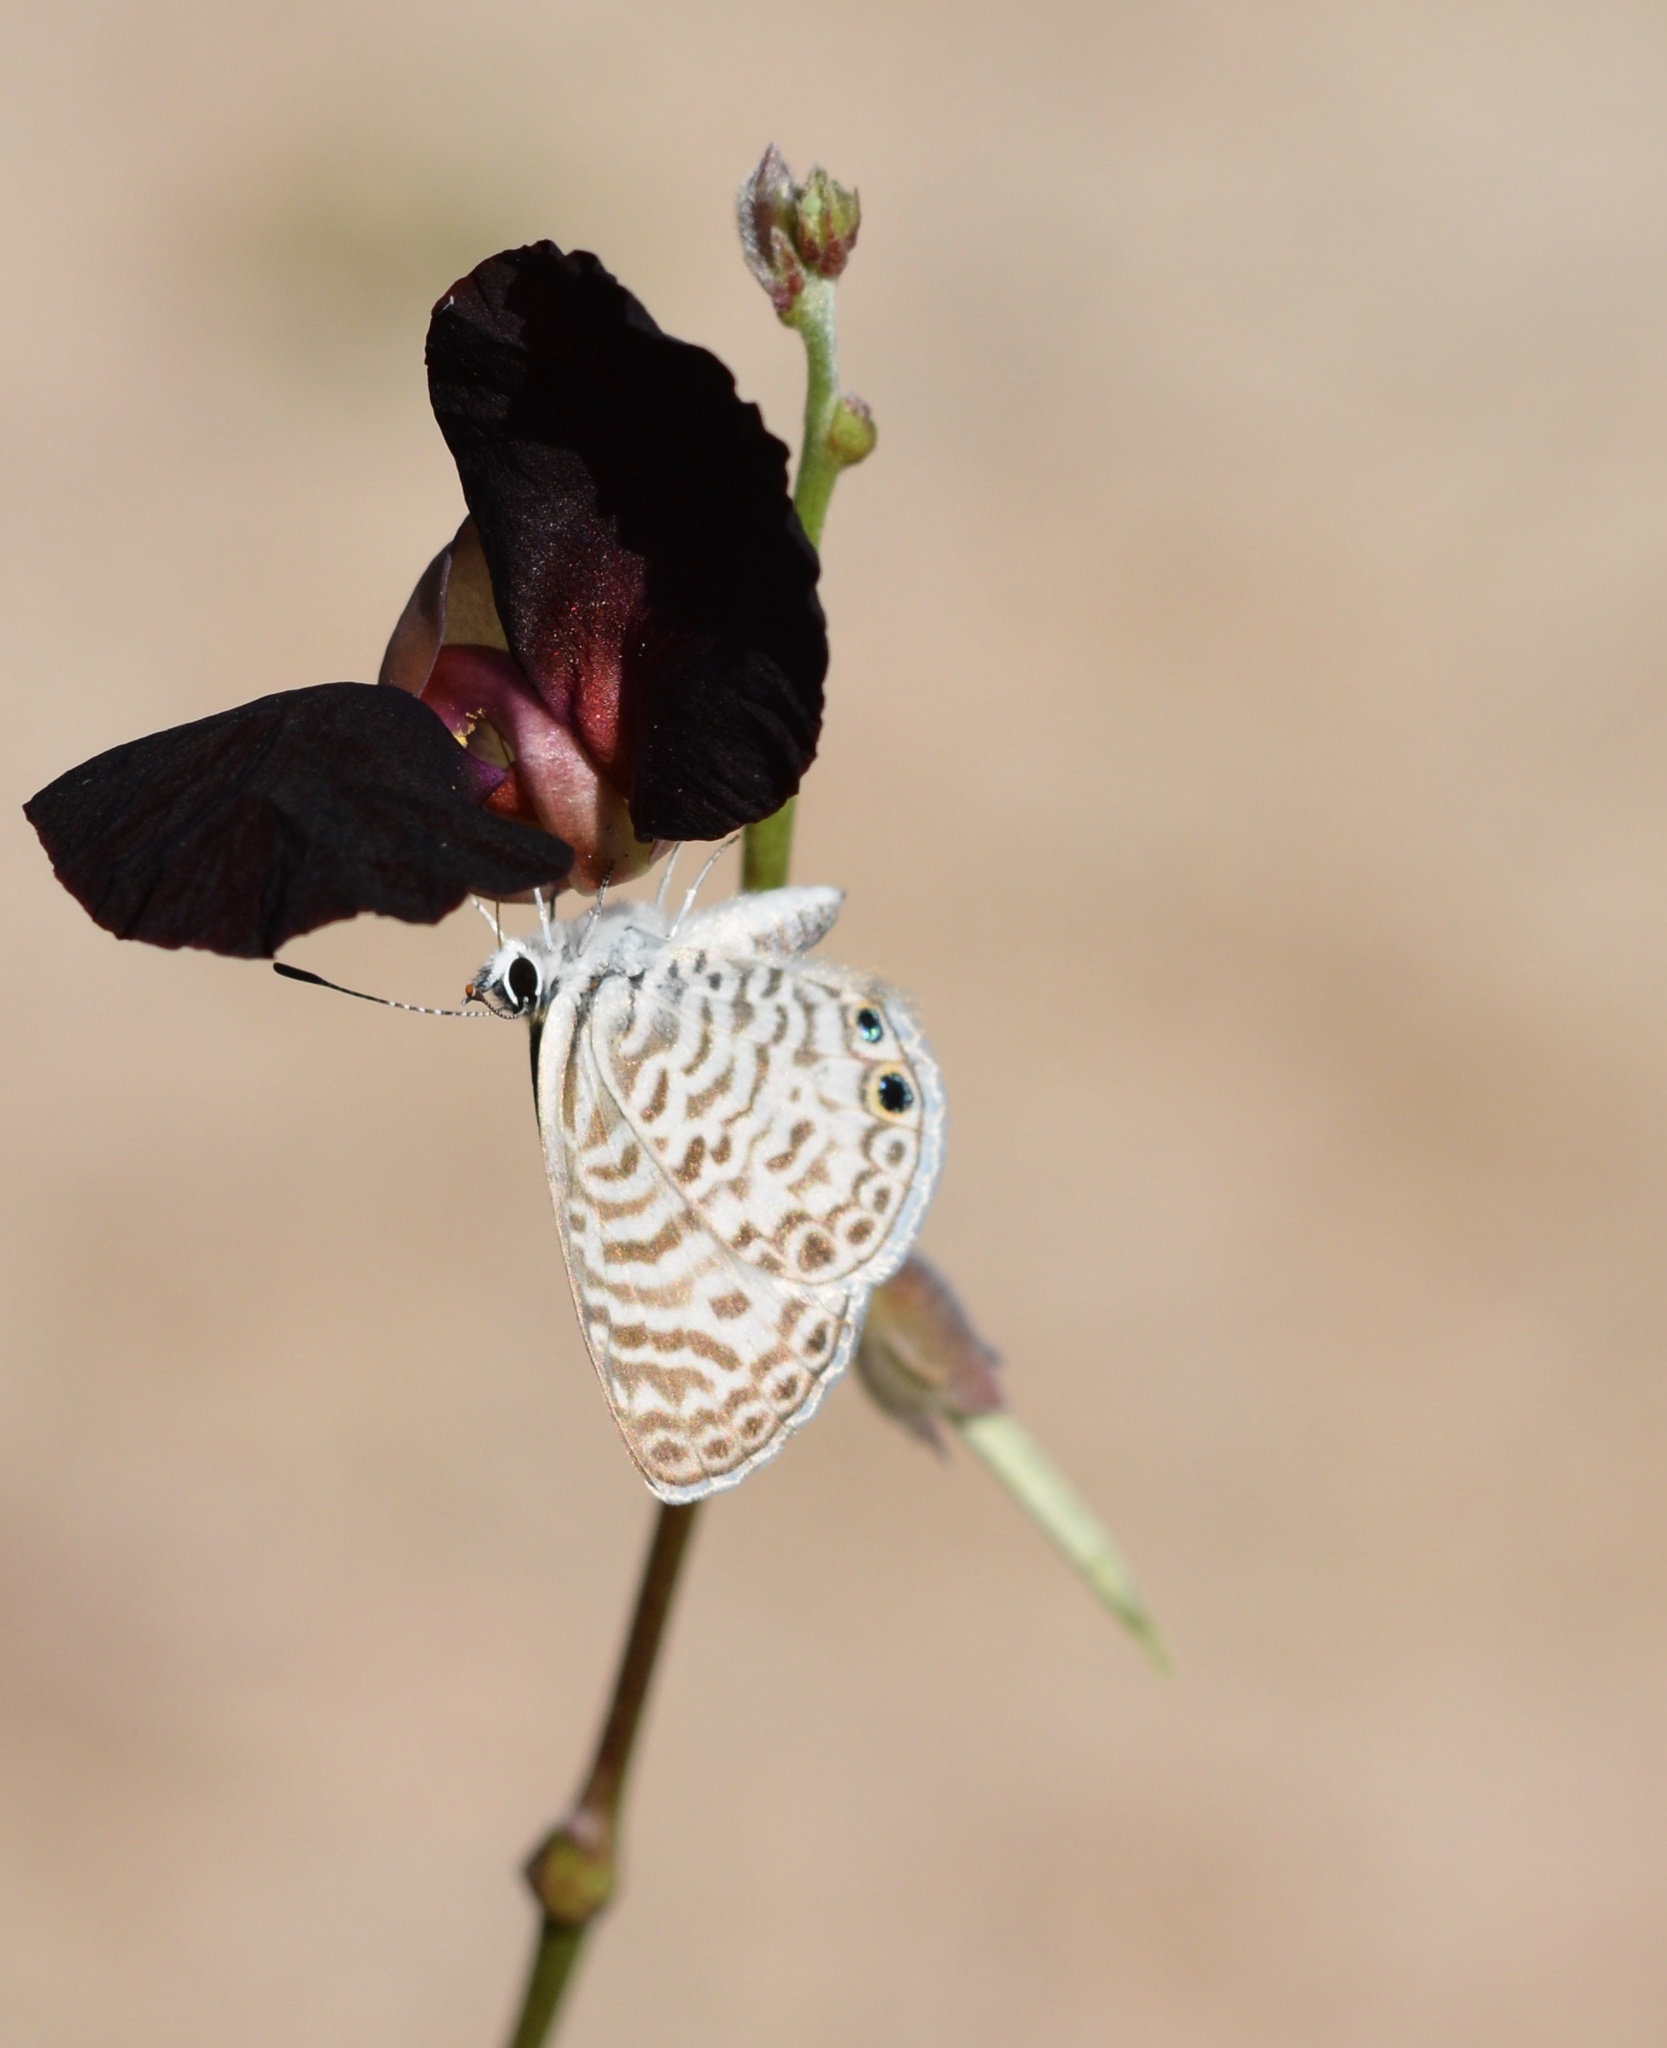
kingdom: Animalia
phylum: Arthropoda
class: Insecta
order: Lepidoptera
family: Lycaenidae
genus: Leptotes
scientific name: Leptotes cassius
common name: Cassius blue
